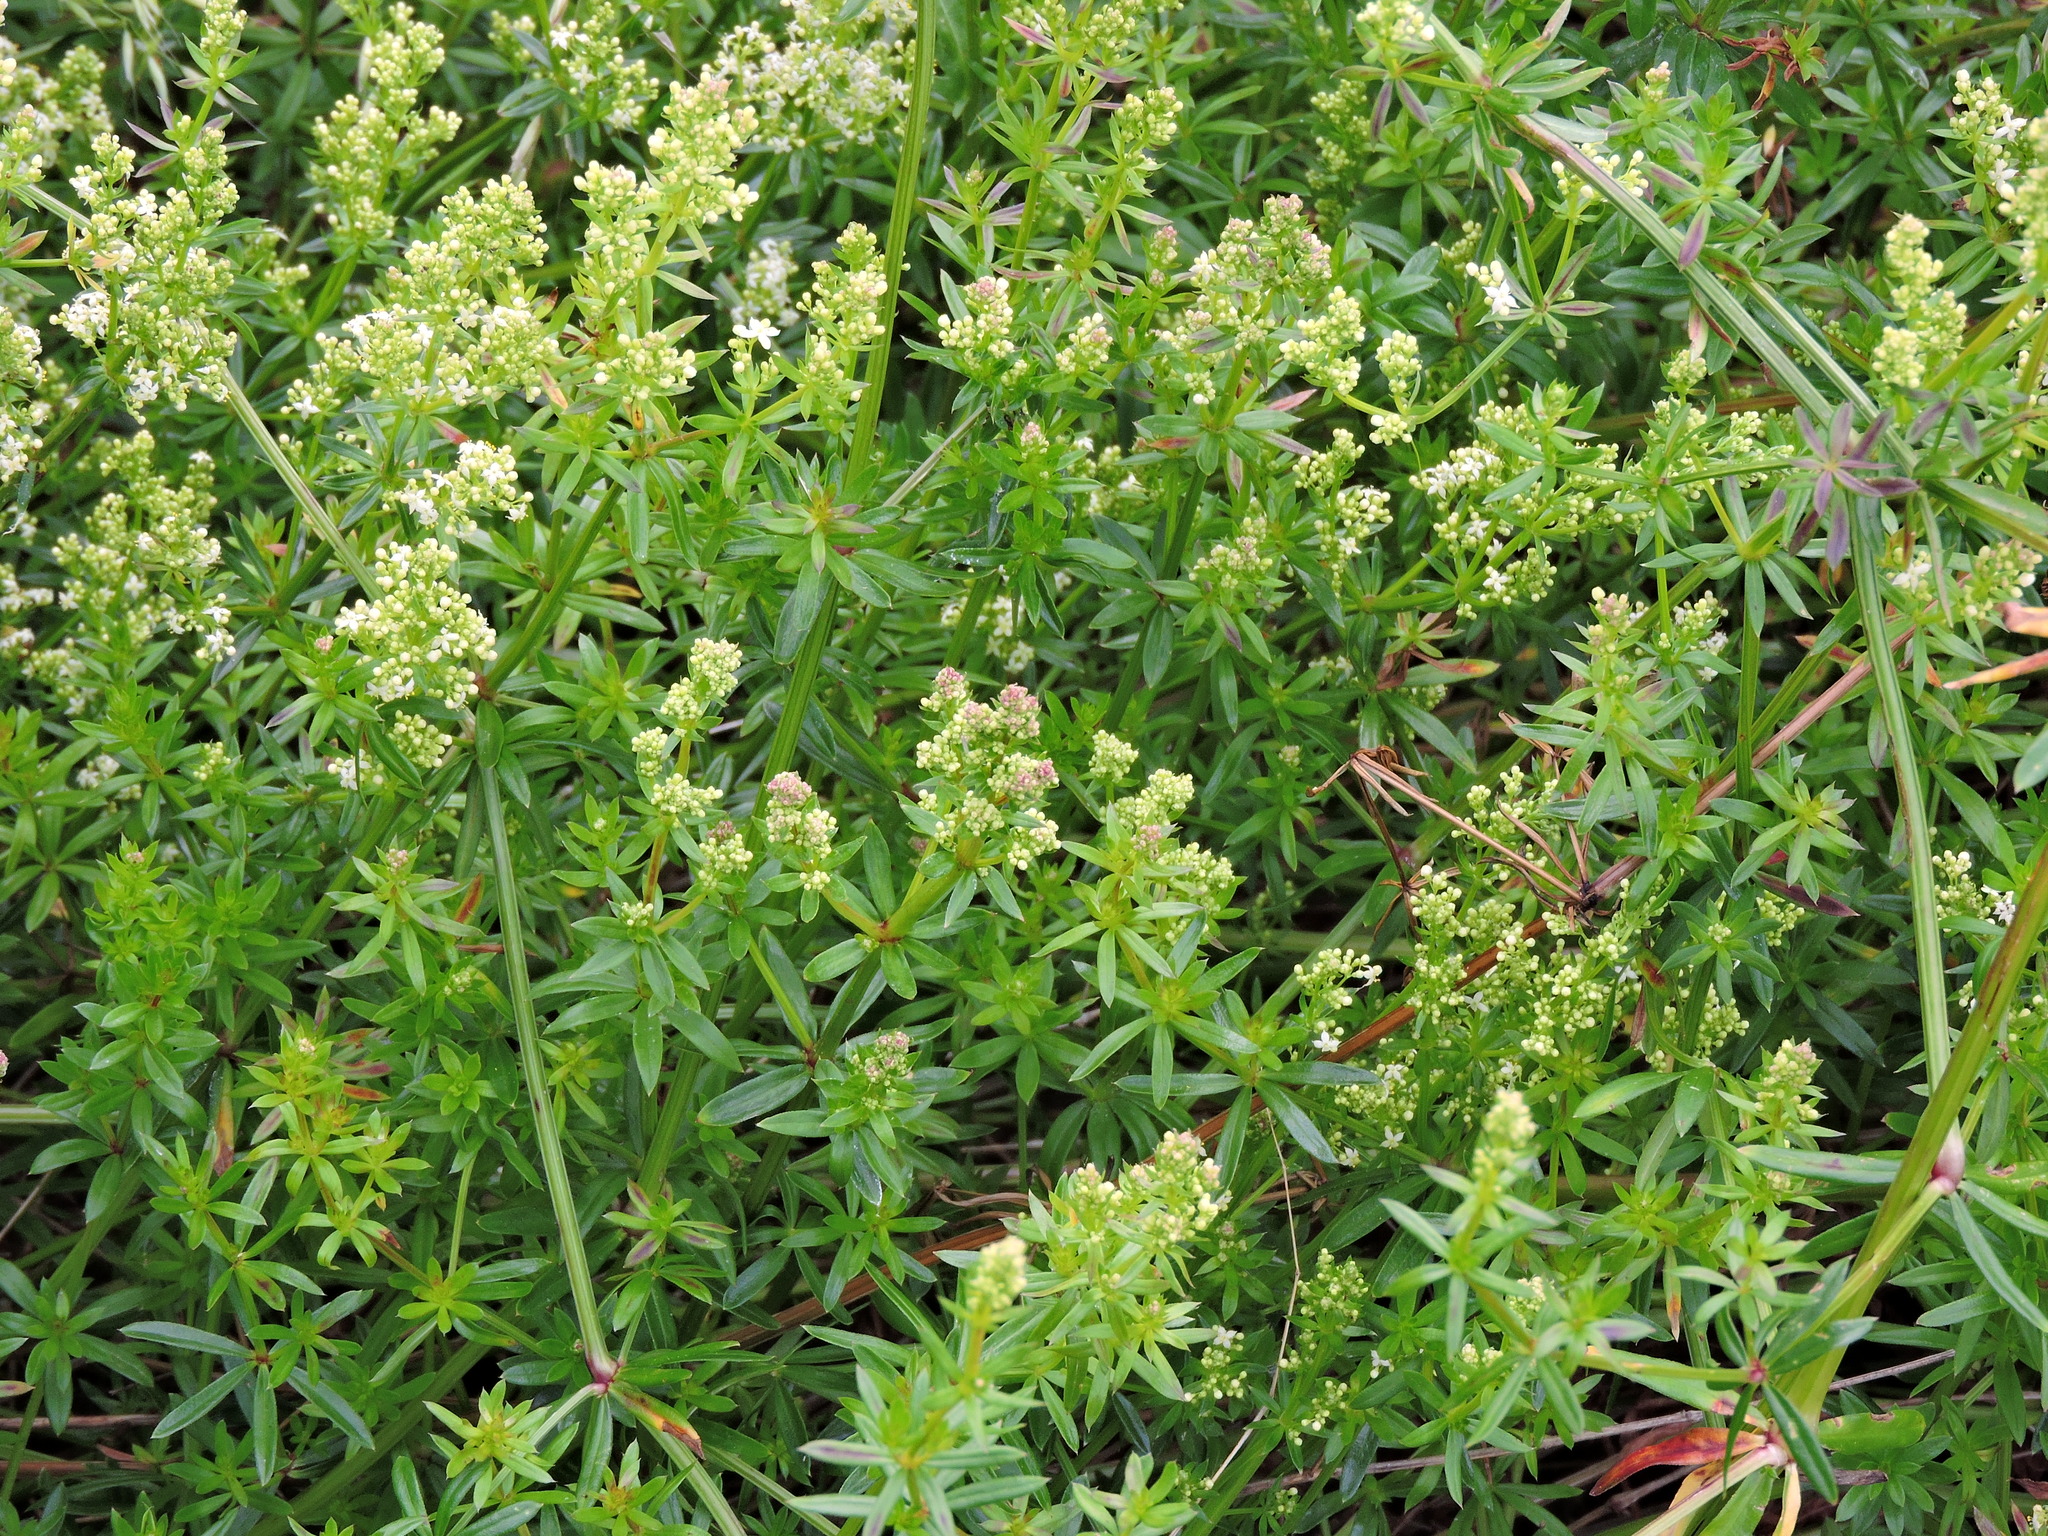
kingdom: Plantae
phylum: Tracheophyta
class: Magnoliopsida
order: Gentianales
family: Rubiaceae
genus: Galium
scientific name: Galium mollugo
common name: Hedge bedstraw
